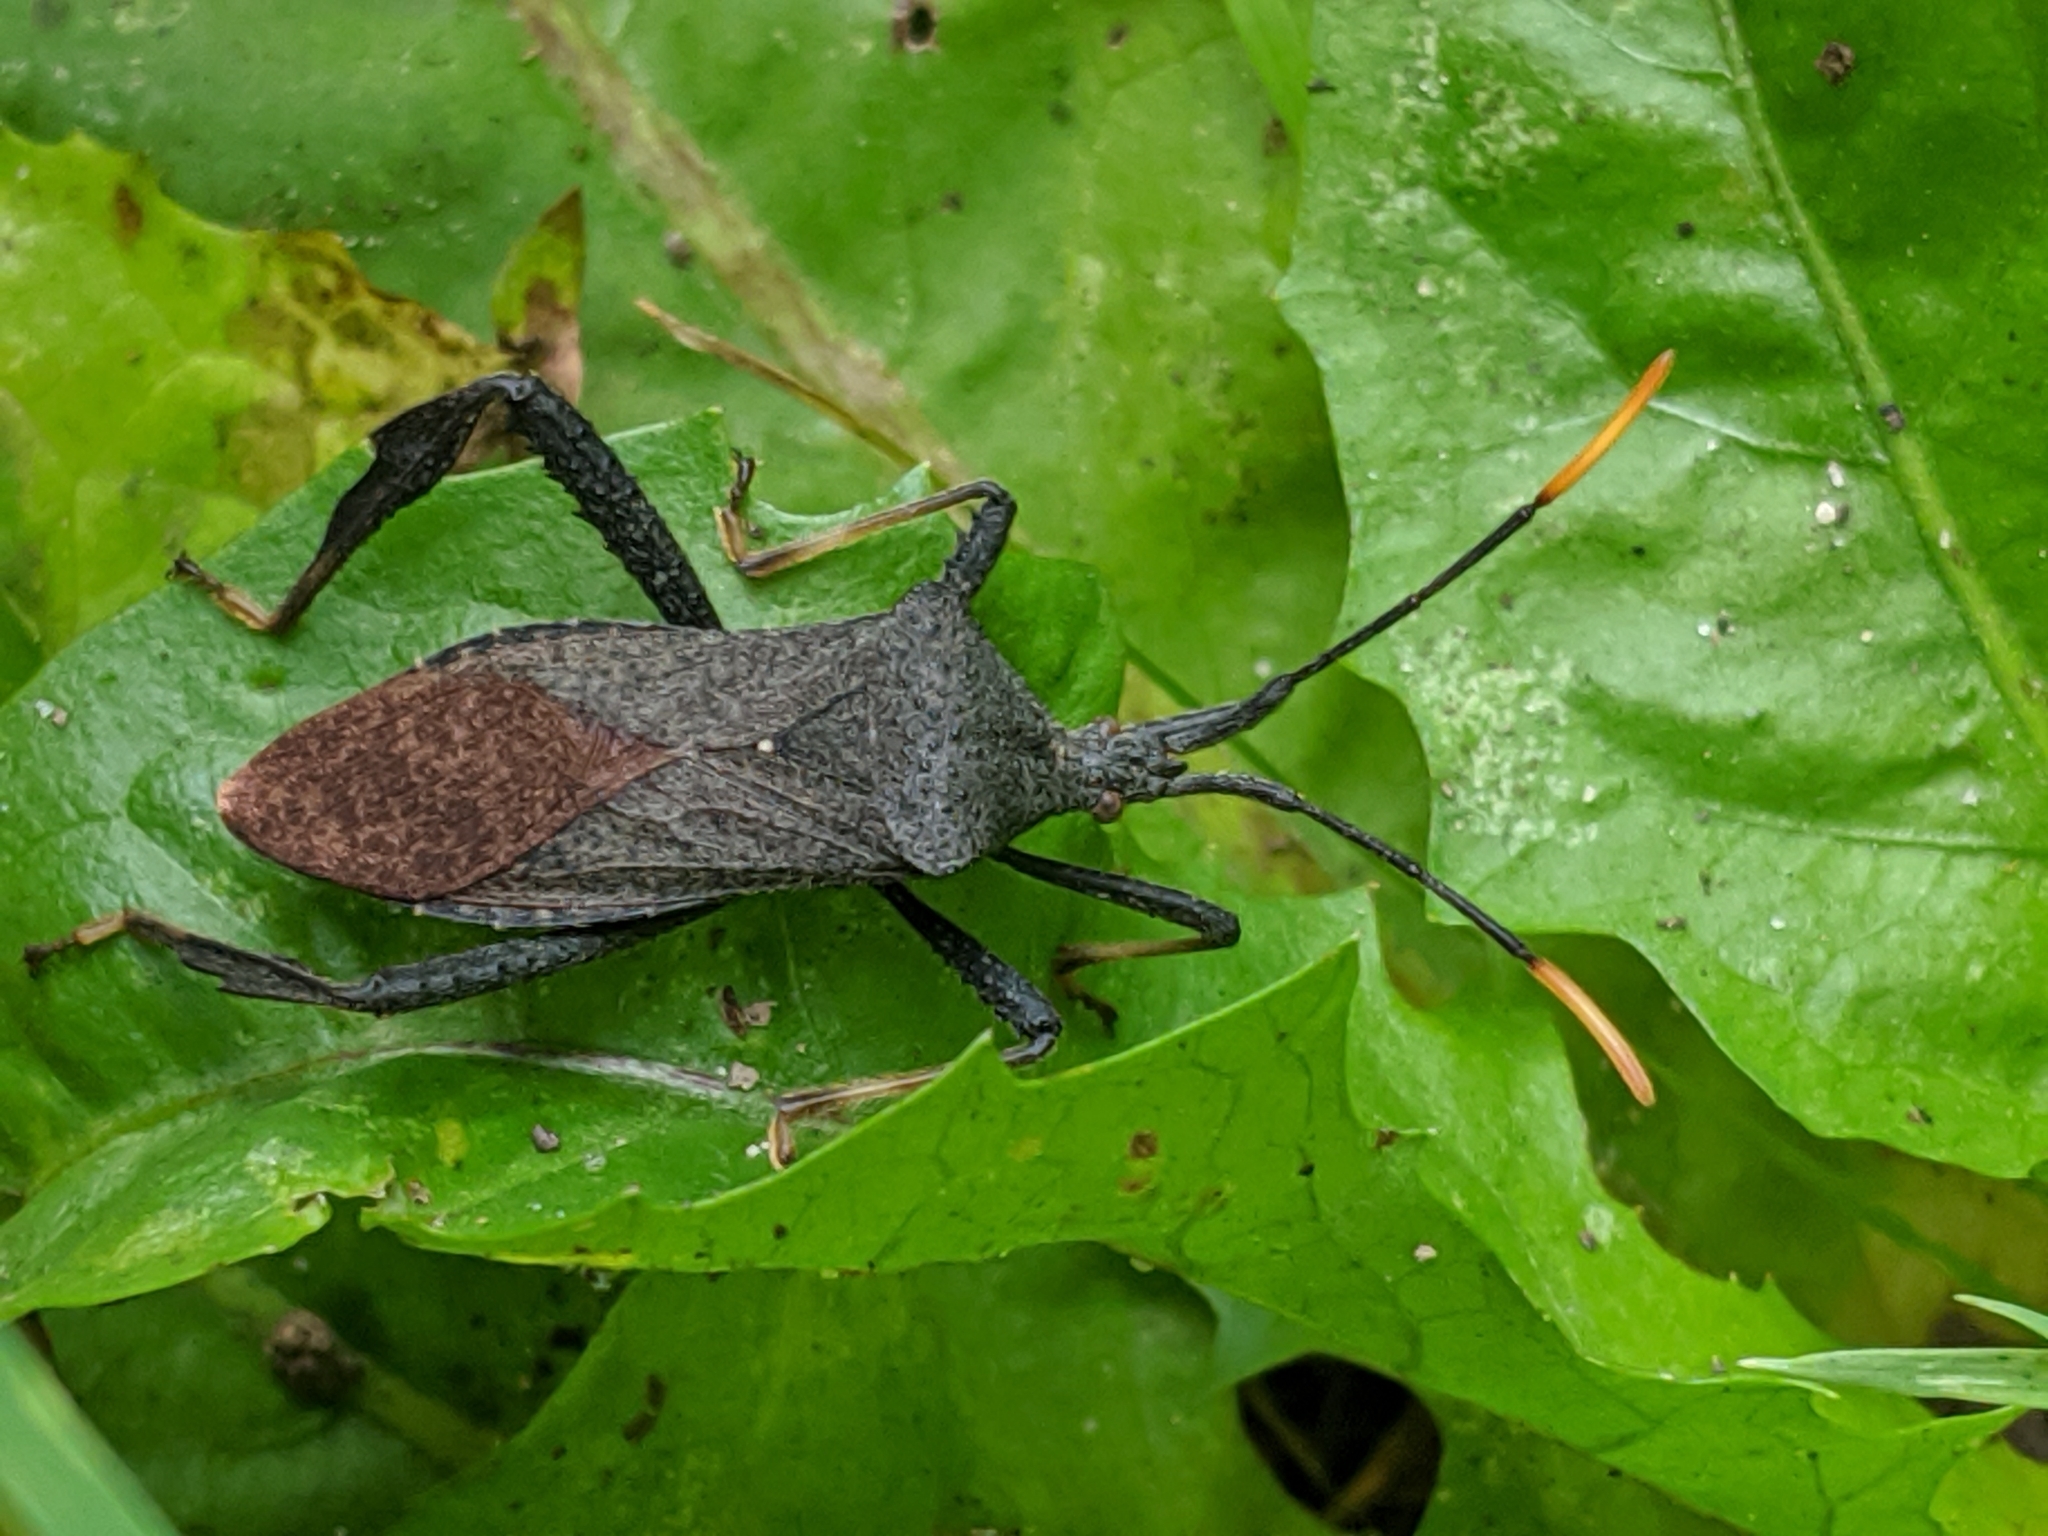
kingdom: Animalia
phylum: Arthropoda
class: Insecta
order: Hemiptera
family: Coreidae
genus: Acanthocephala
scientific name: Acanthocephala terminalis
